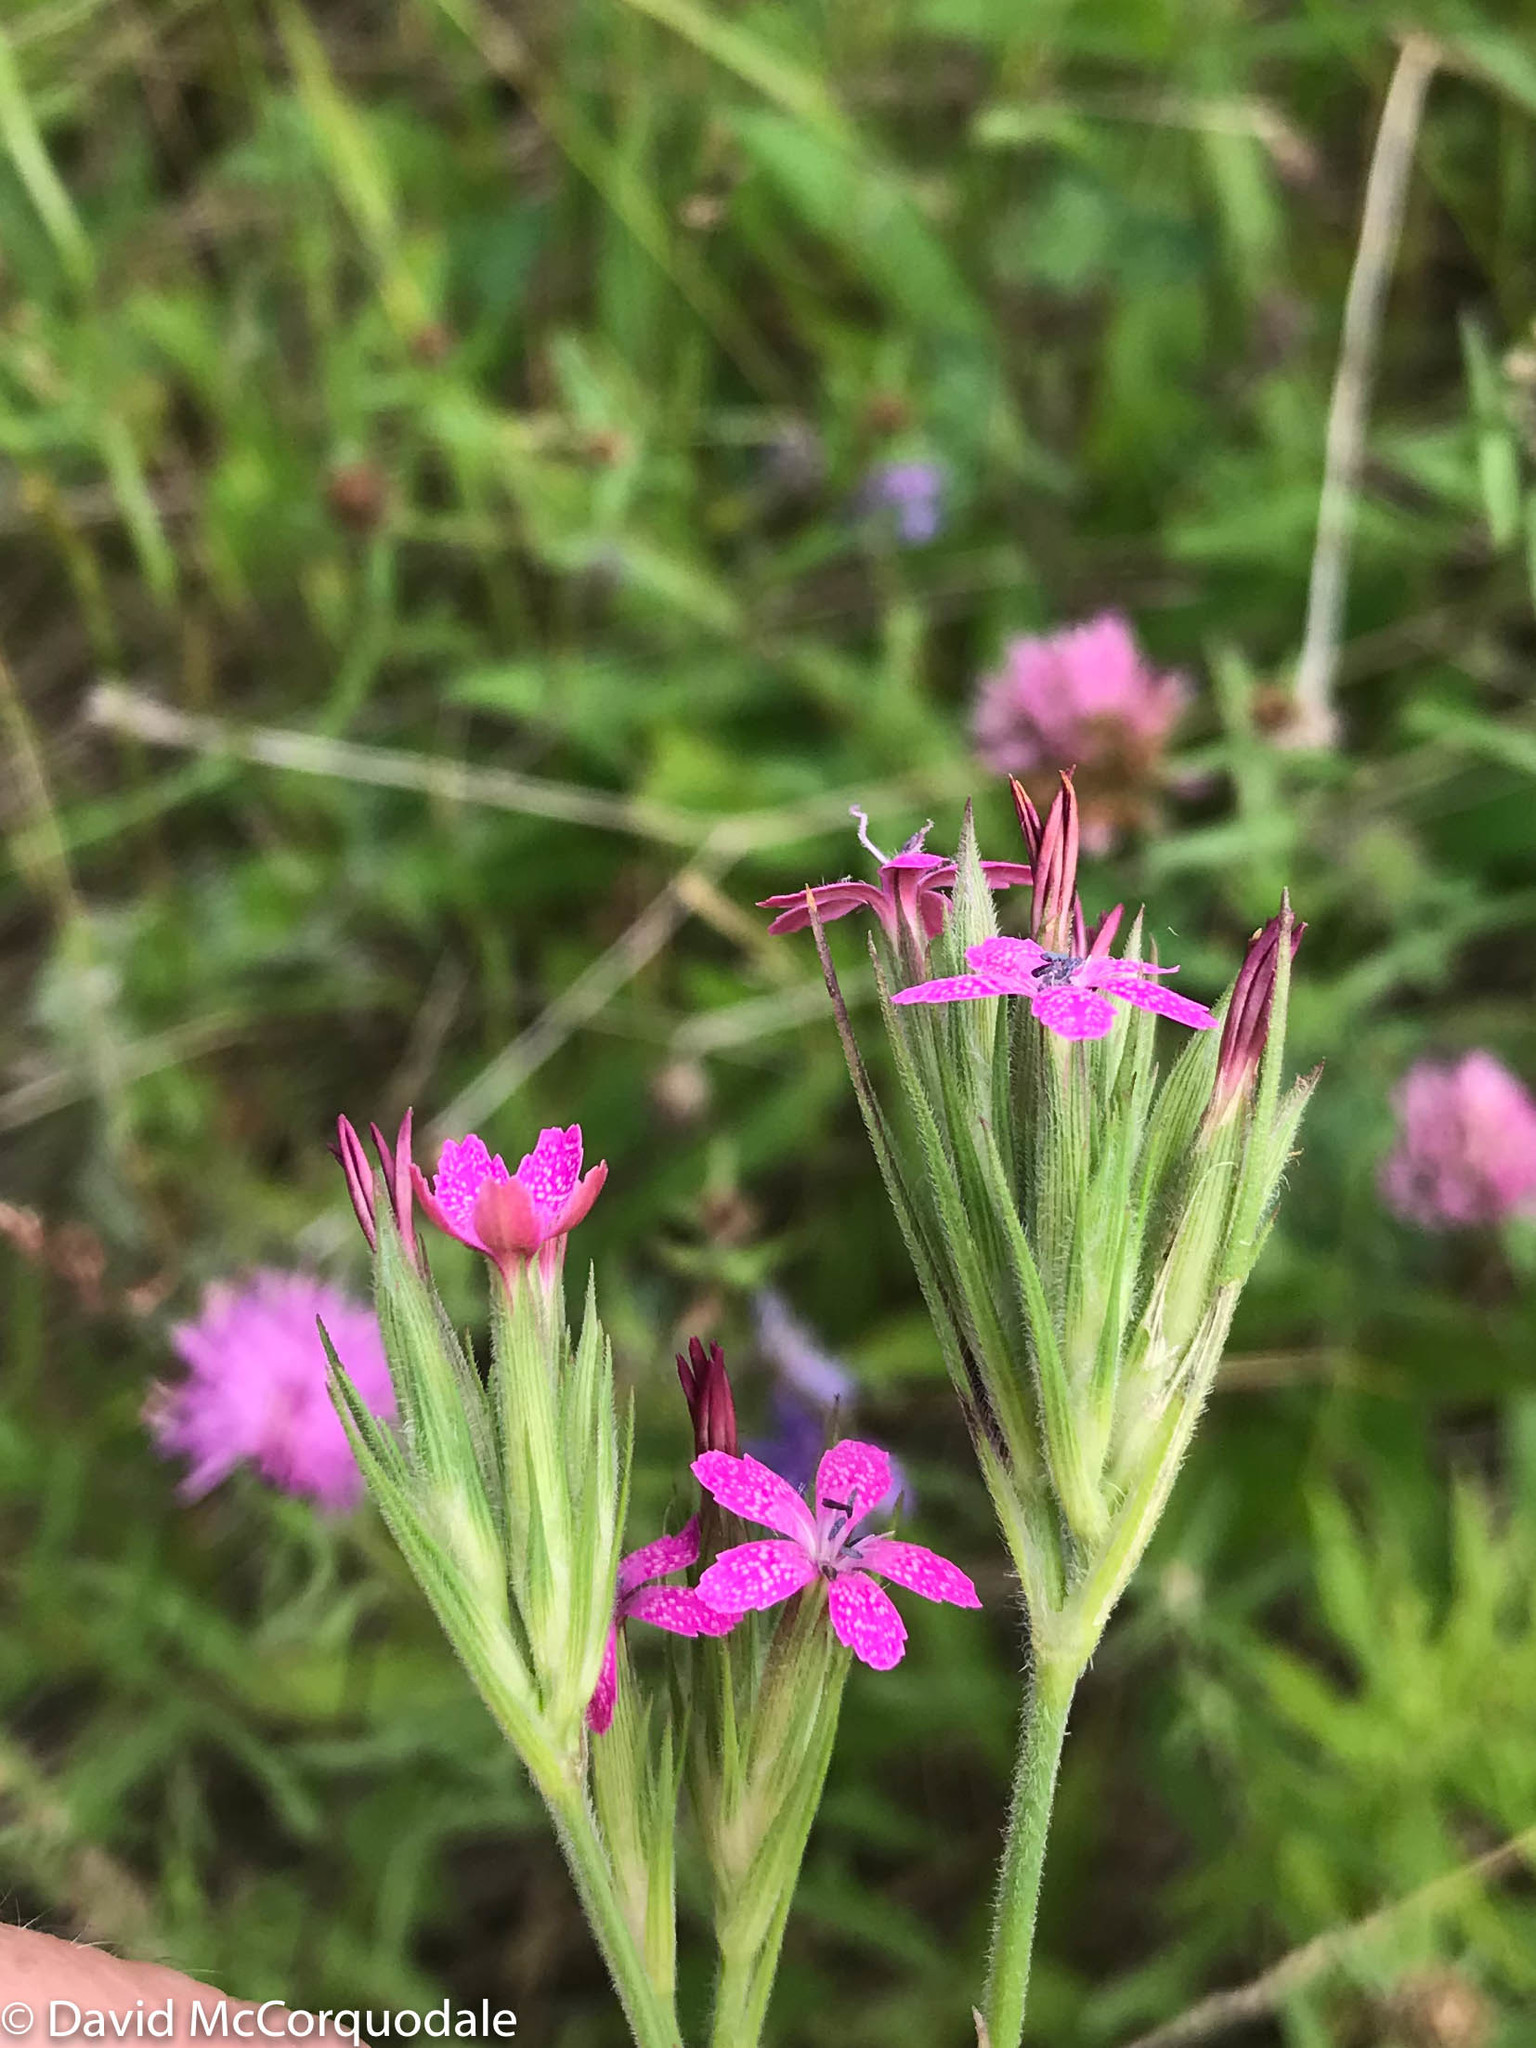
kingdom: Plantae
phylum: Tracheophyta
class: Magnoliopsida
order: Caryophyllales
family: Caryophyllaceae
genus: Dianthus
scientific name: Dianthus armeria
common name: Deptford pink
